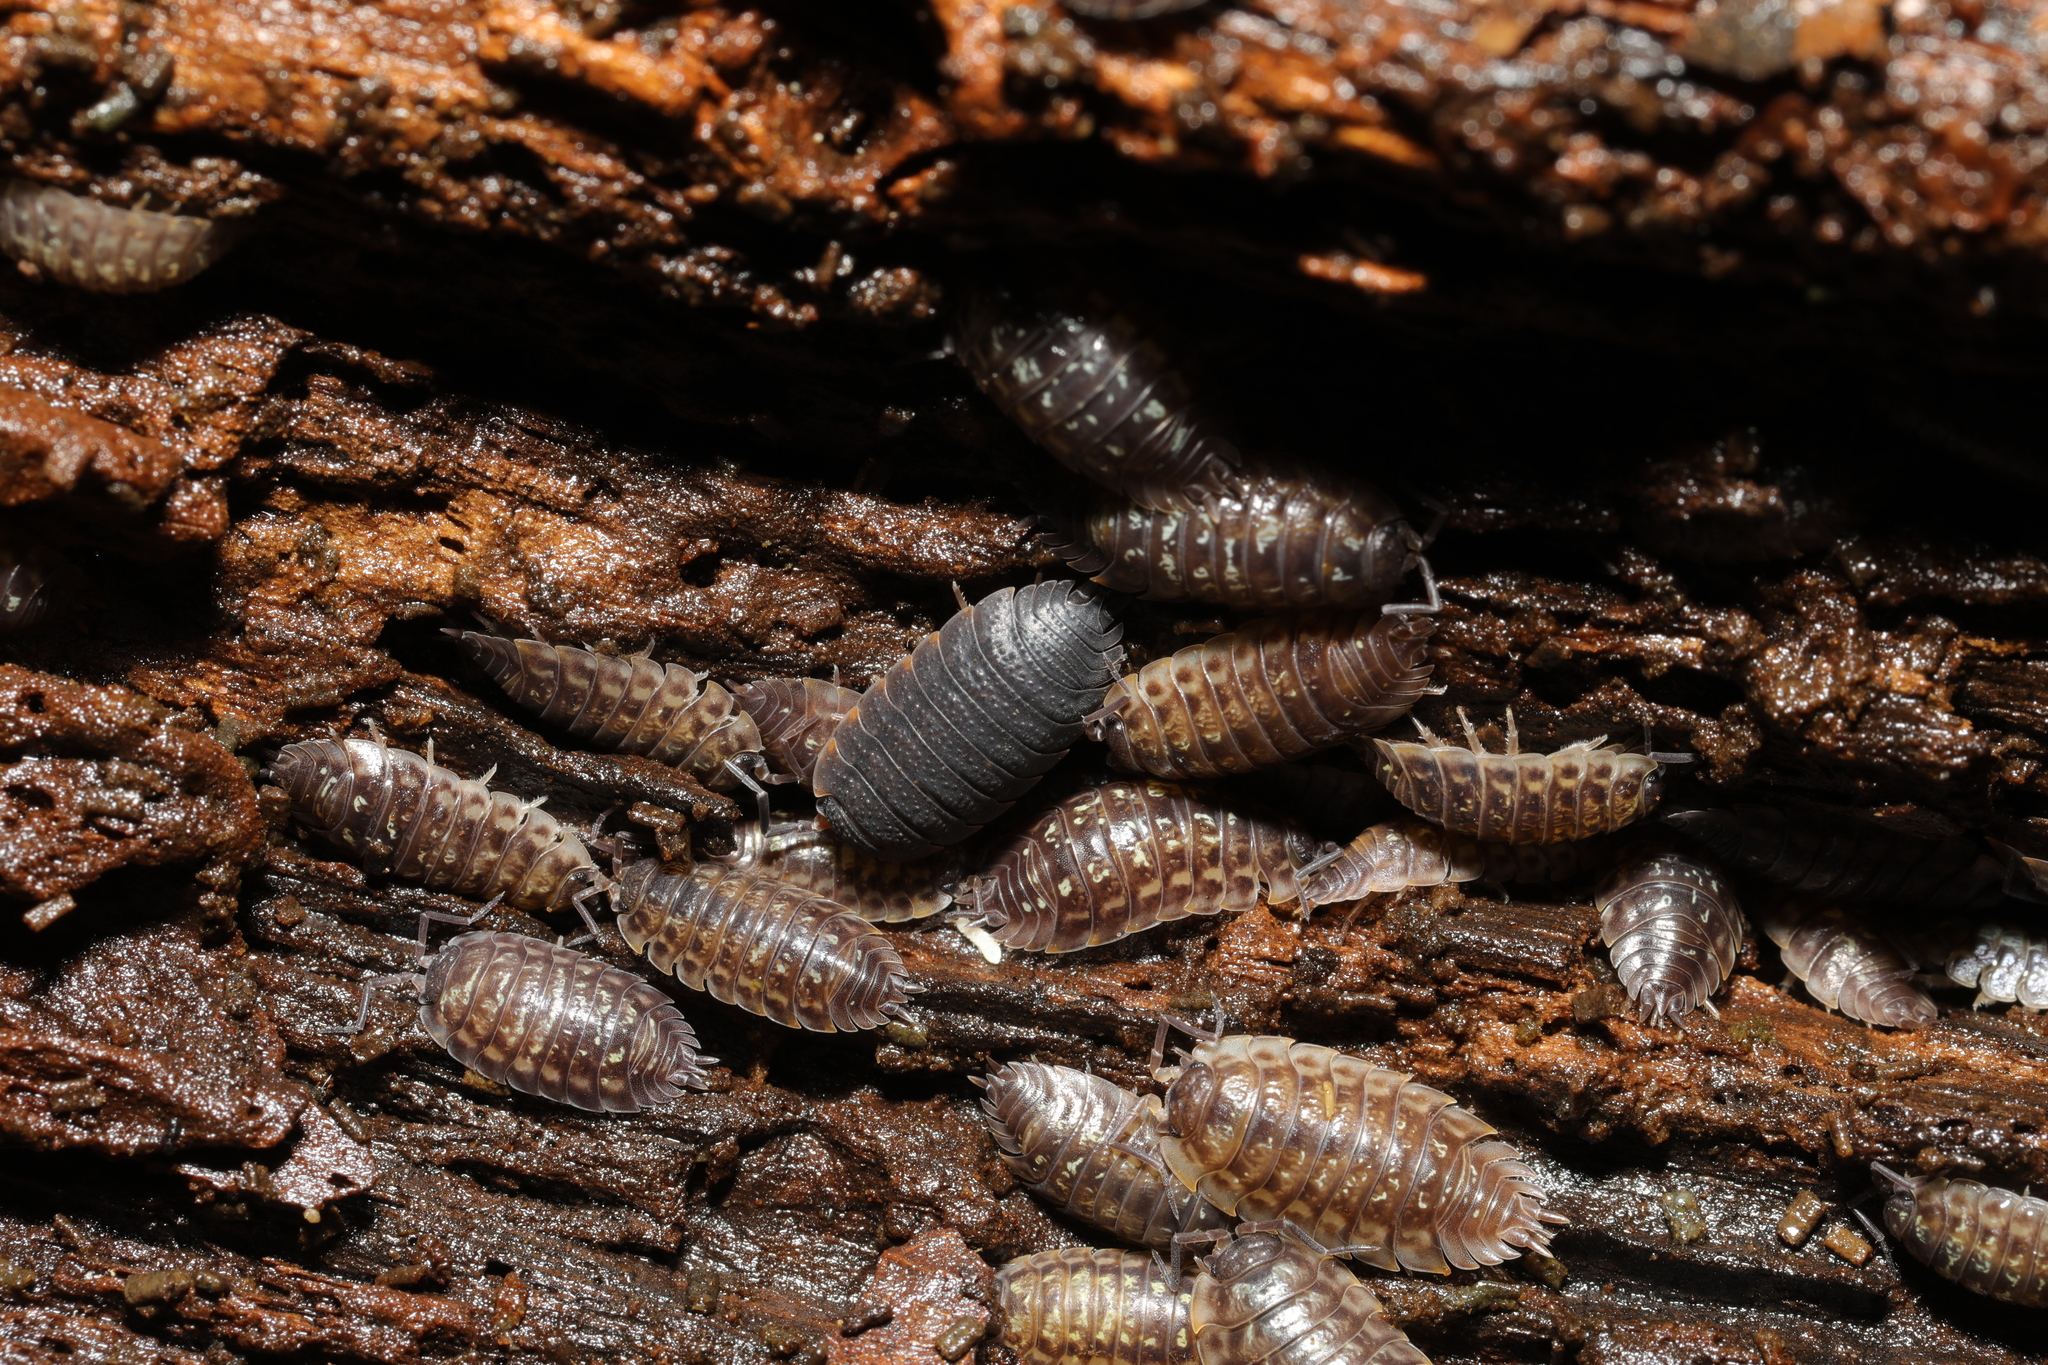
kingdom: Animalia
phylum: Arthropoda
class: Malacostraca
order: Isopoda
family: Porcellionidae
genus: Porcellio
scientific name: Porcellio scaber
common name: Common rough woodlouse
